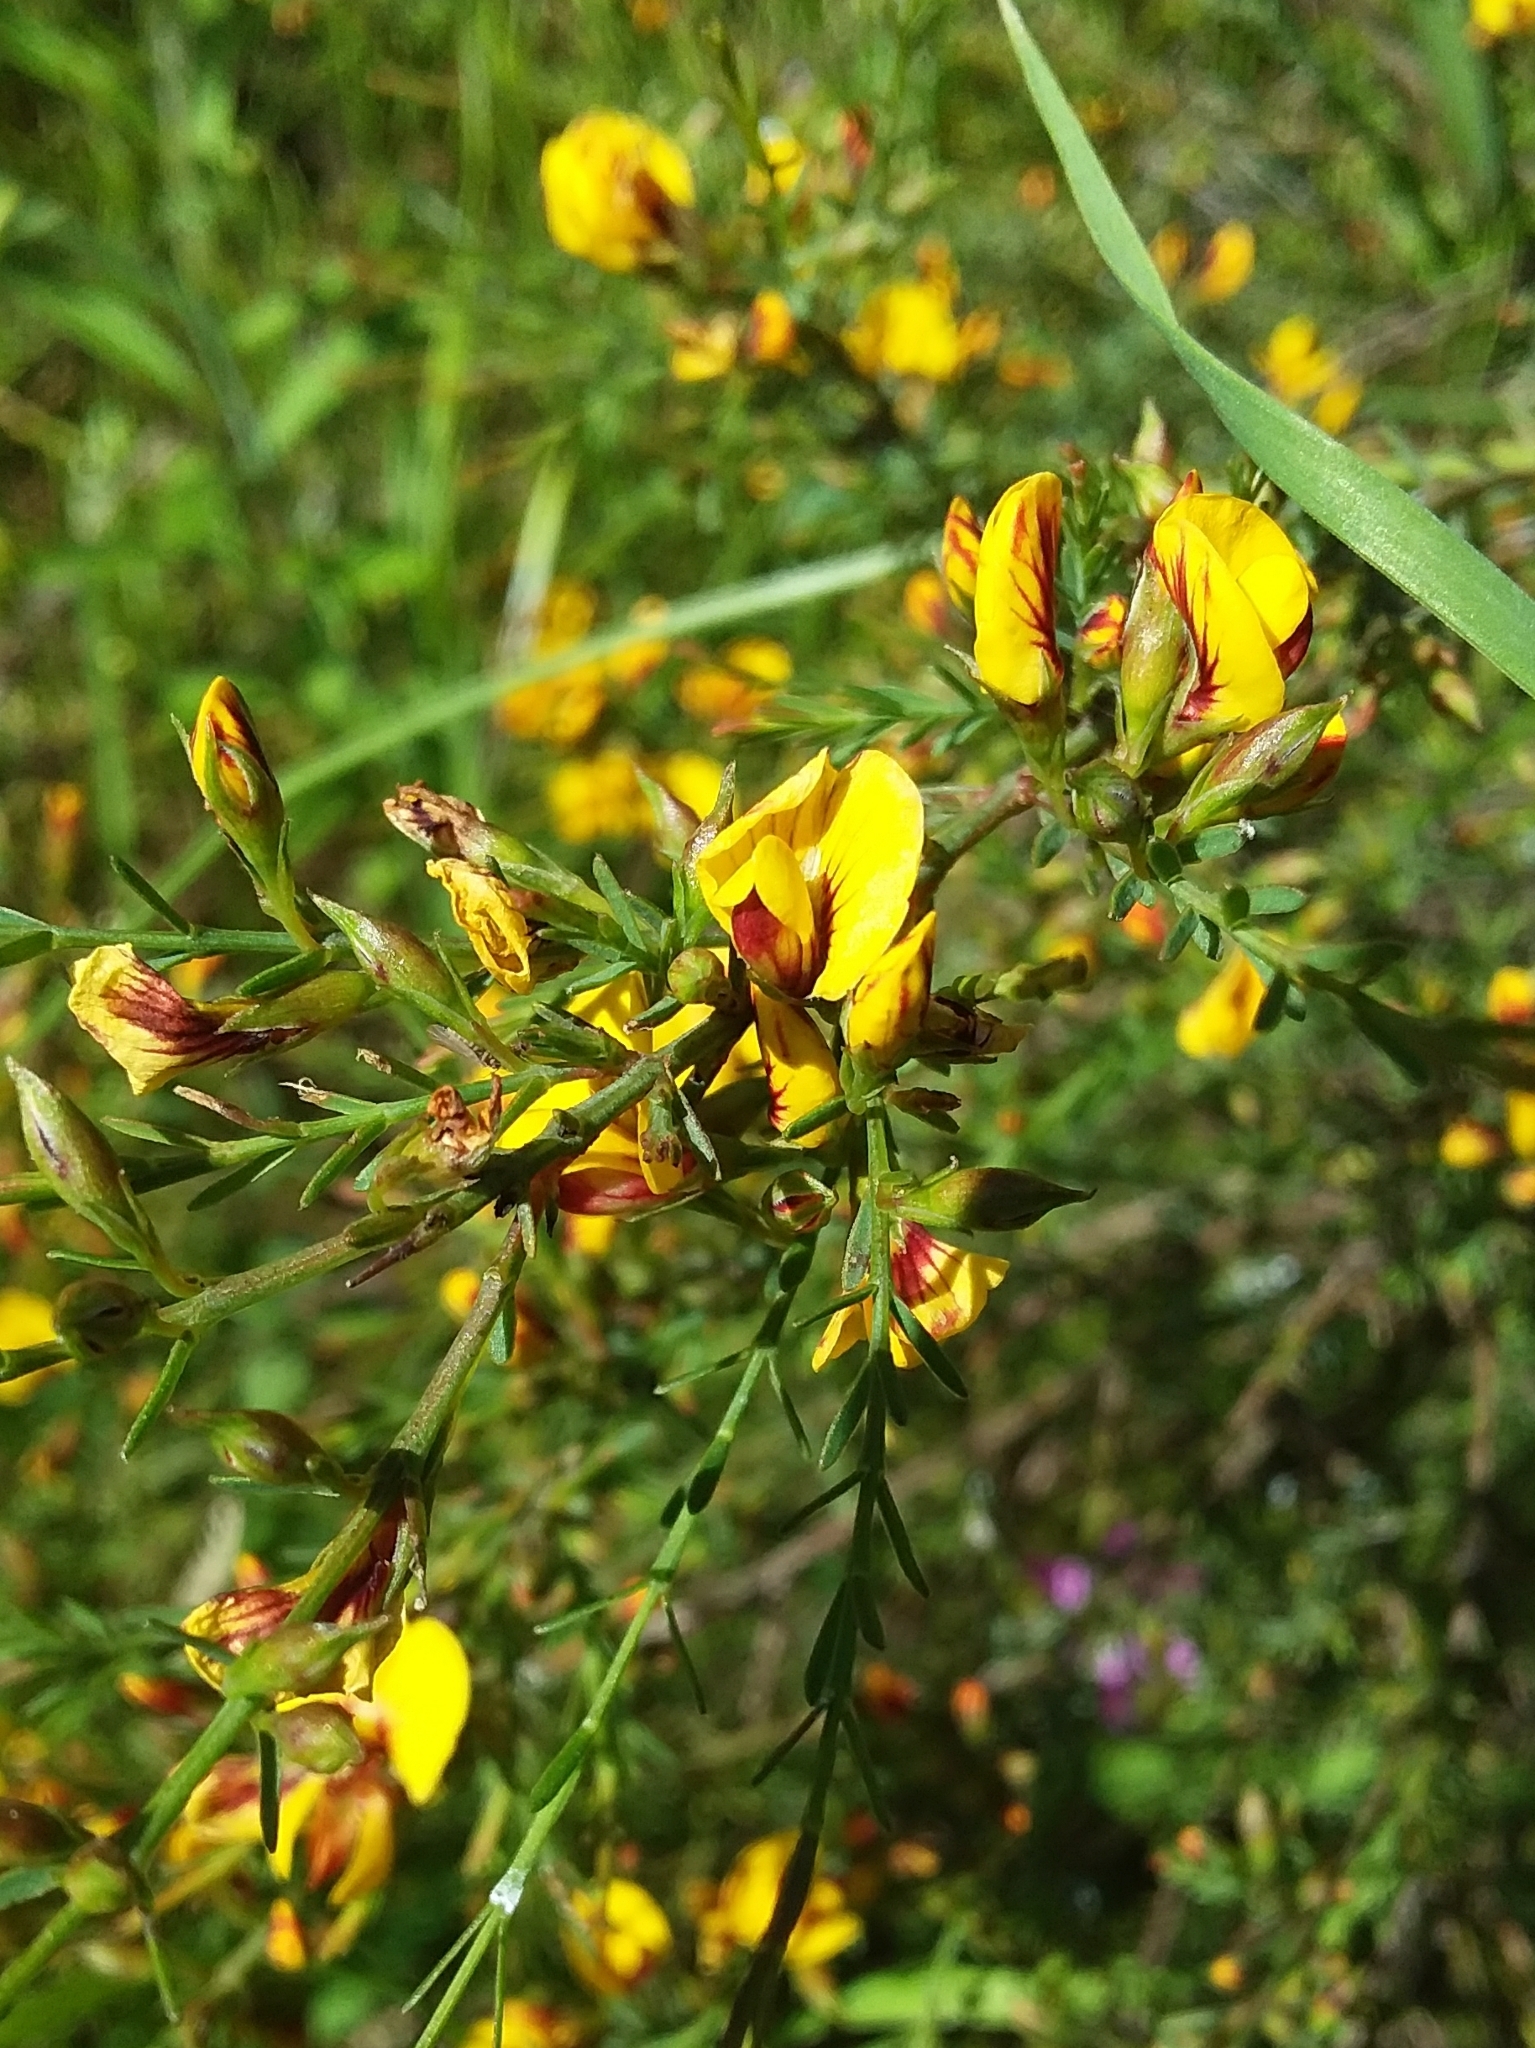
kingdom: Plantae
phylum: Tracheophyta
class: Magnoliopsida
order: Fabales
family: Fabaceae
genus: Eutaxia
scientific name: Eutaxia microphylla
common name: Mallee bush-pea
